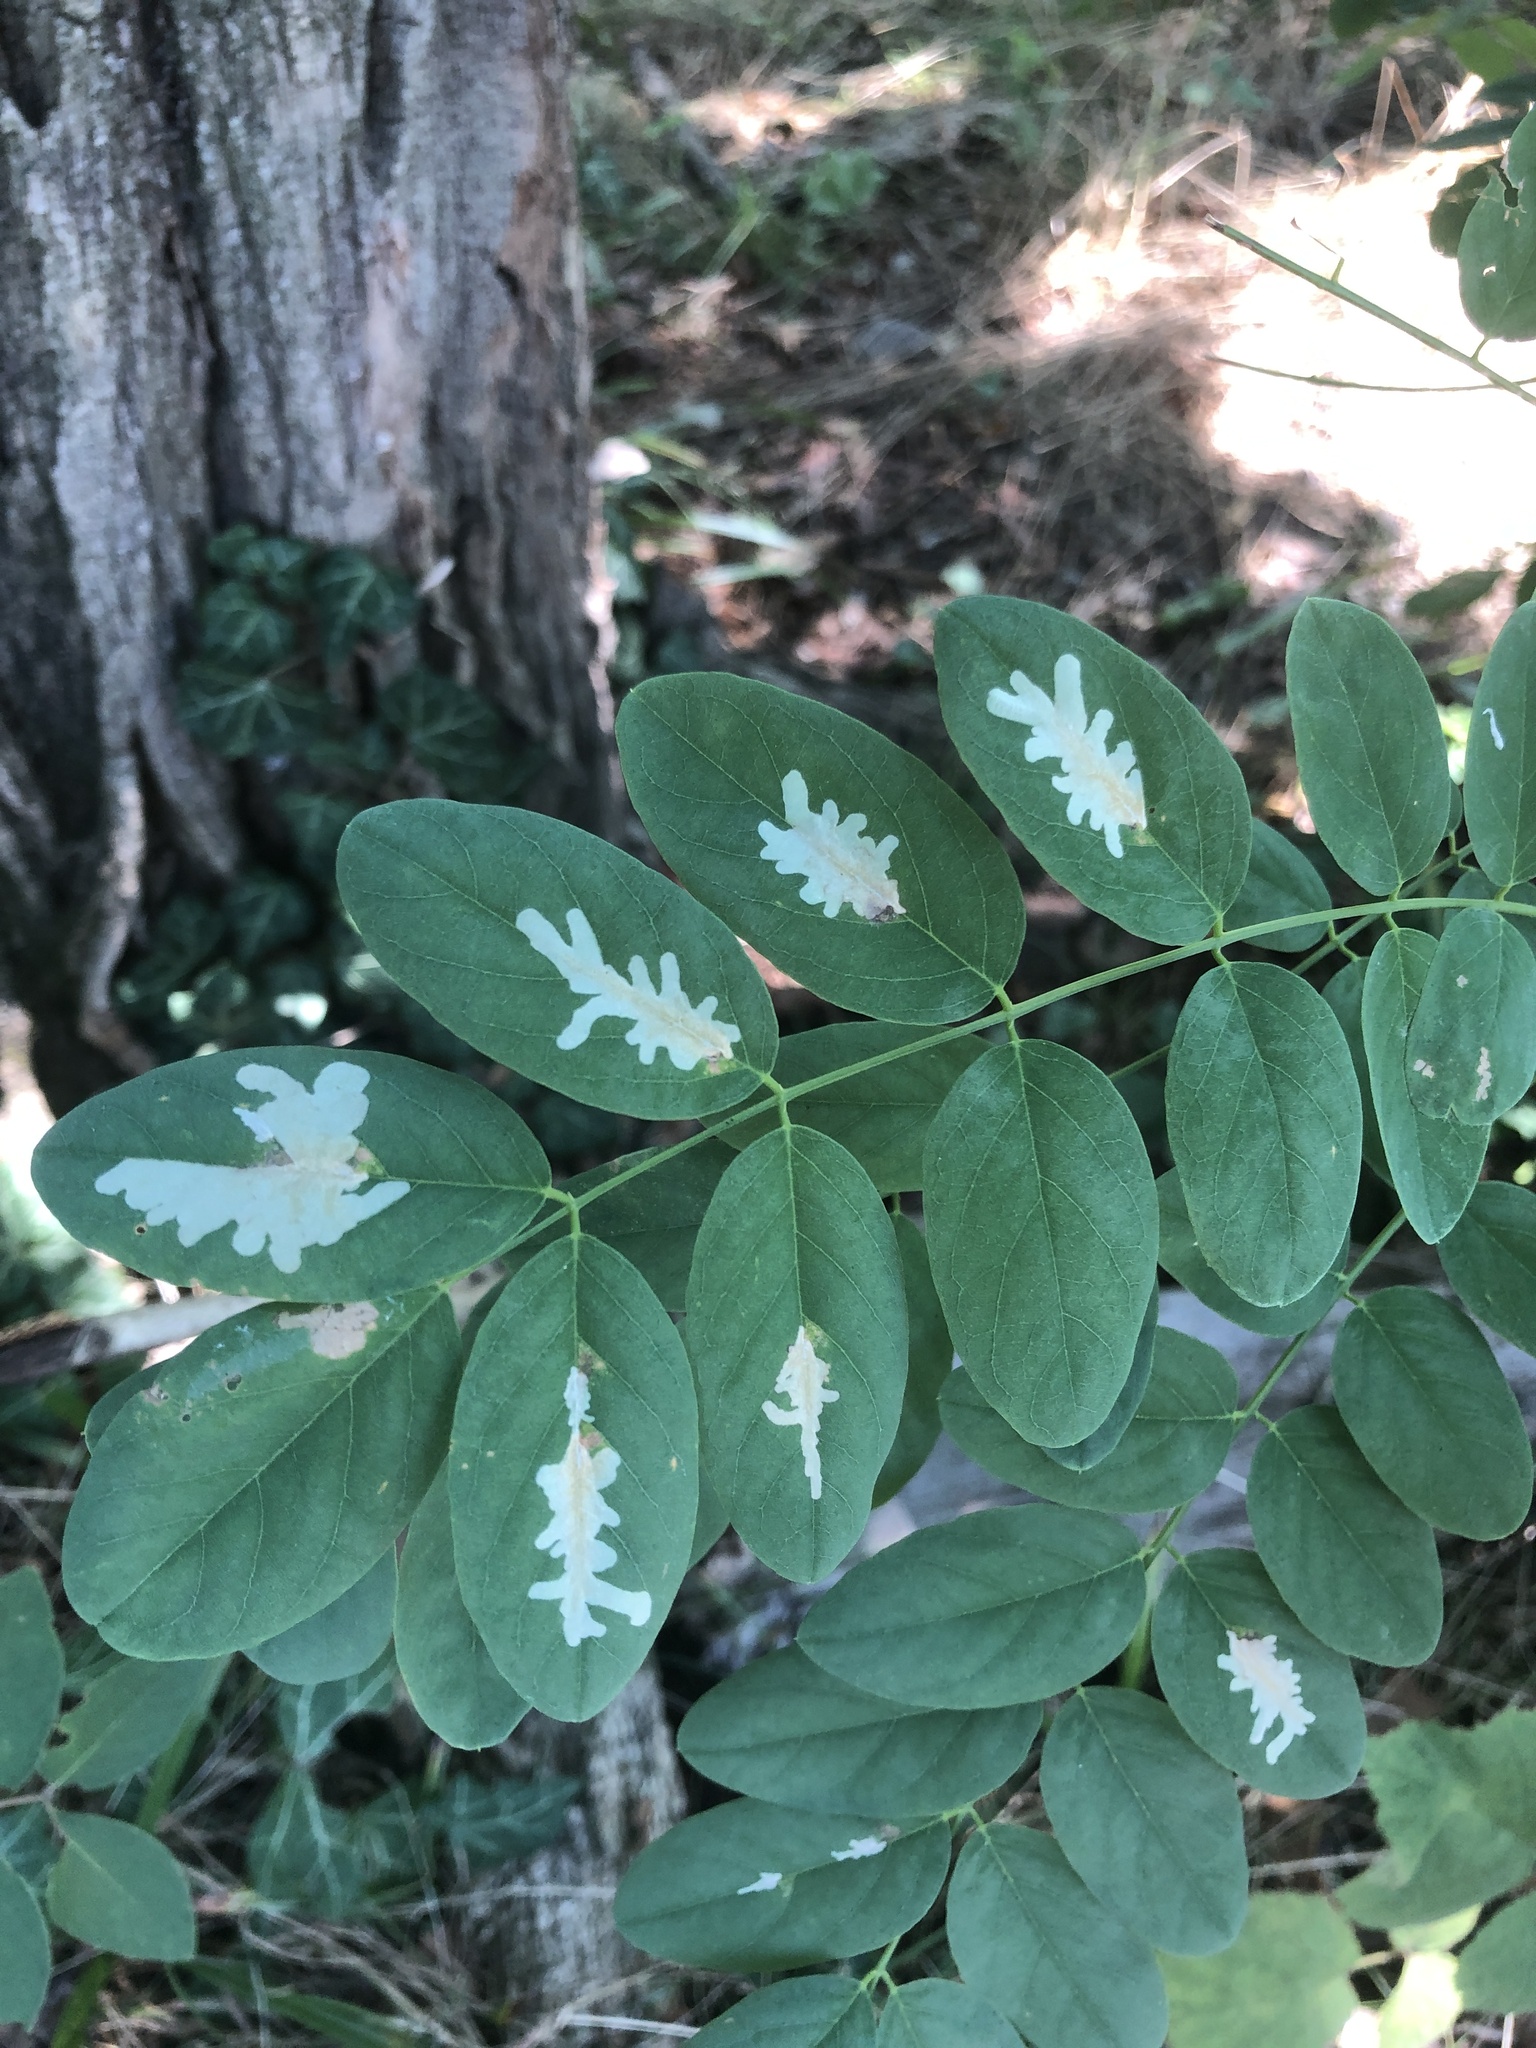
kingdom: Animalia
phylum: Arthropoda
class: Insecta
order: Lepidoptera
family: Gracillariidae
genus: Parectopa
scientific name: Parectopa robiniella
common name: Locust digitate leafminer
